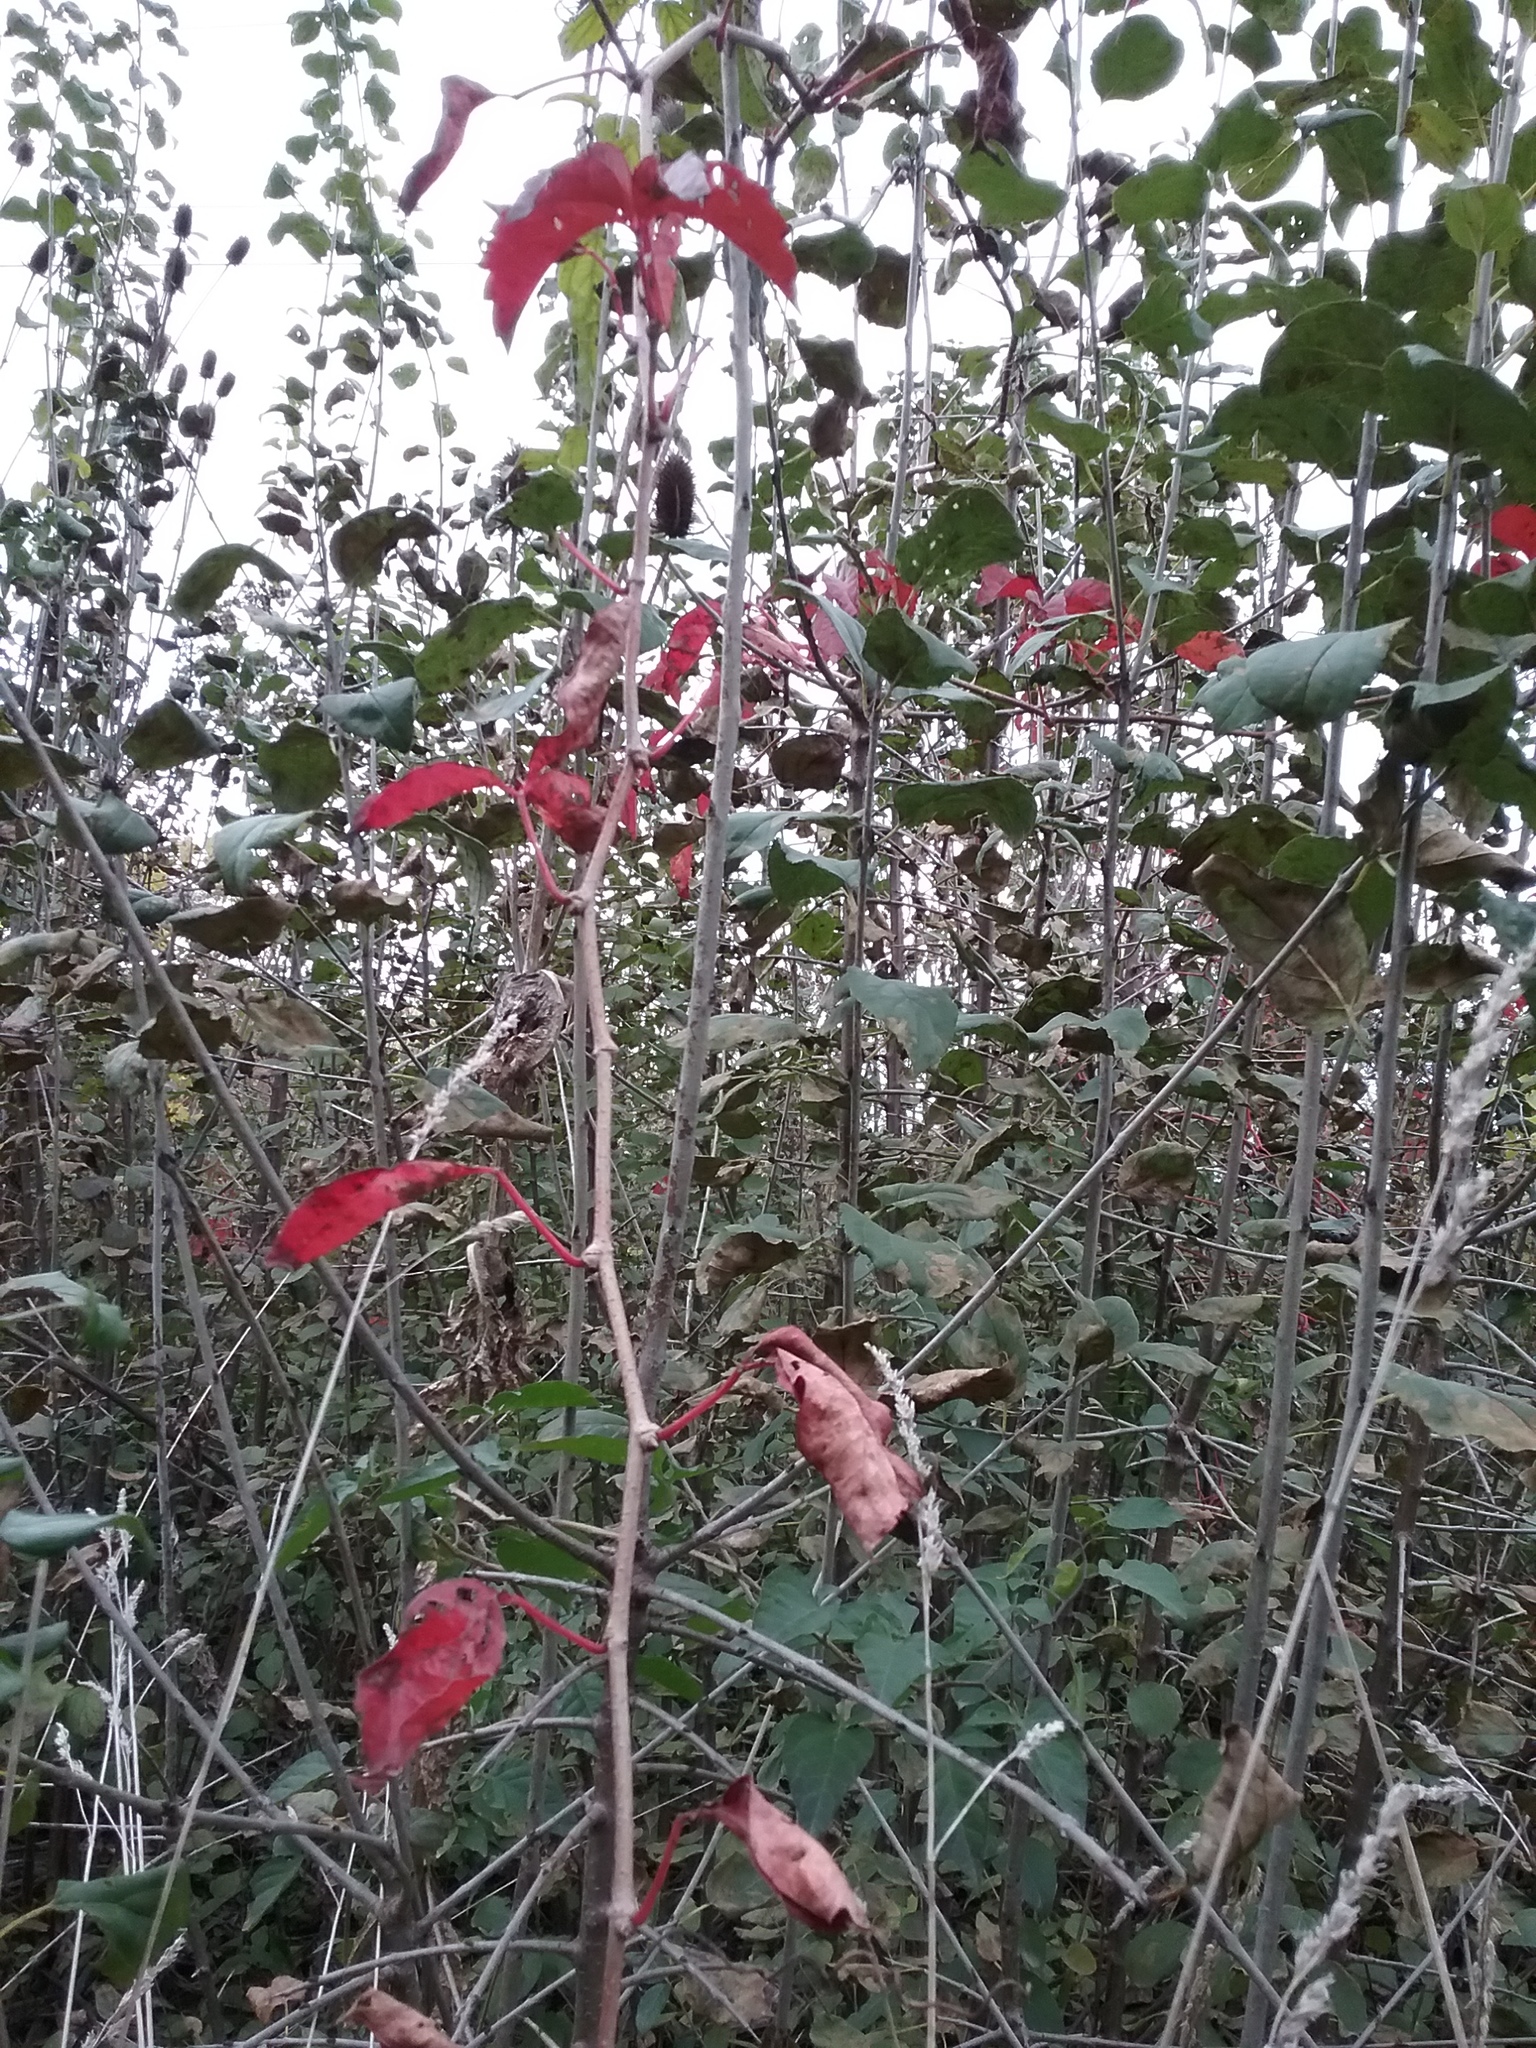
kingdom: Plantae
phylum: Tracheophyta
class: Magnoliopsida
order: Vitales
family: Vitaceae
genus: Parthenocissus
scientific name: Parthenocissus quinquefolia
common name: Virginia-creeper
